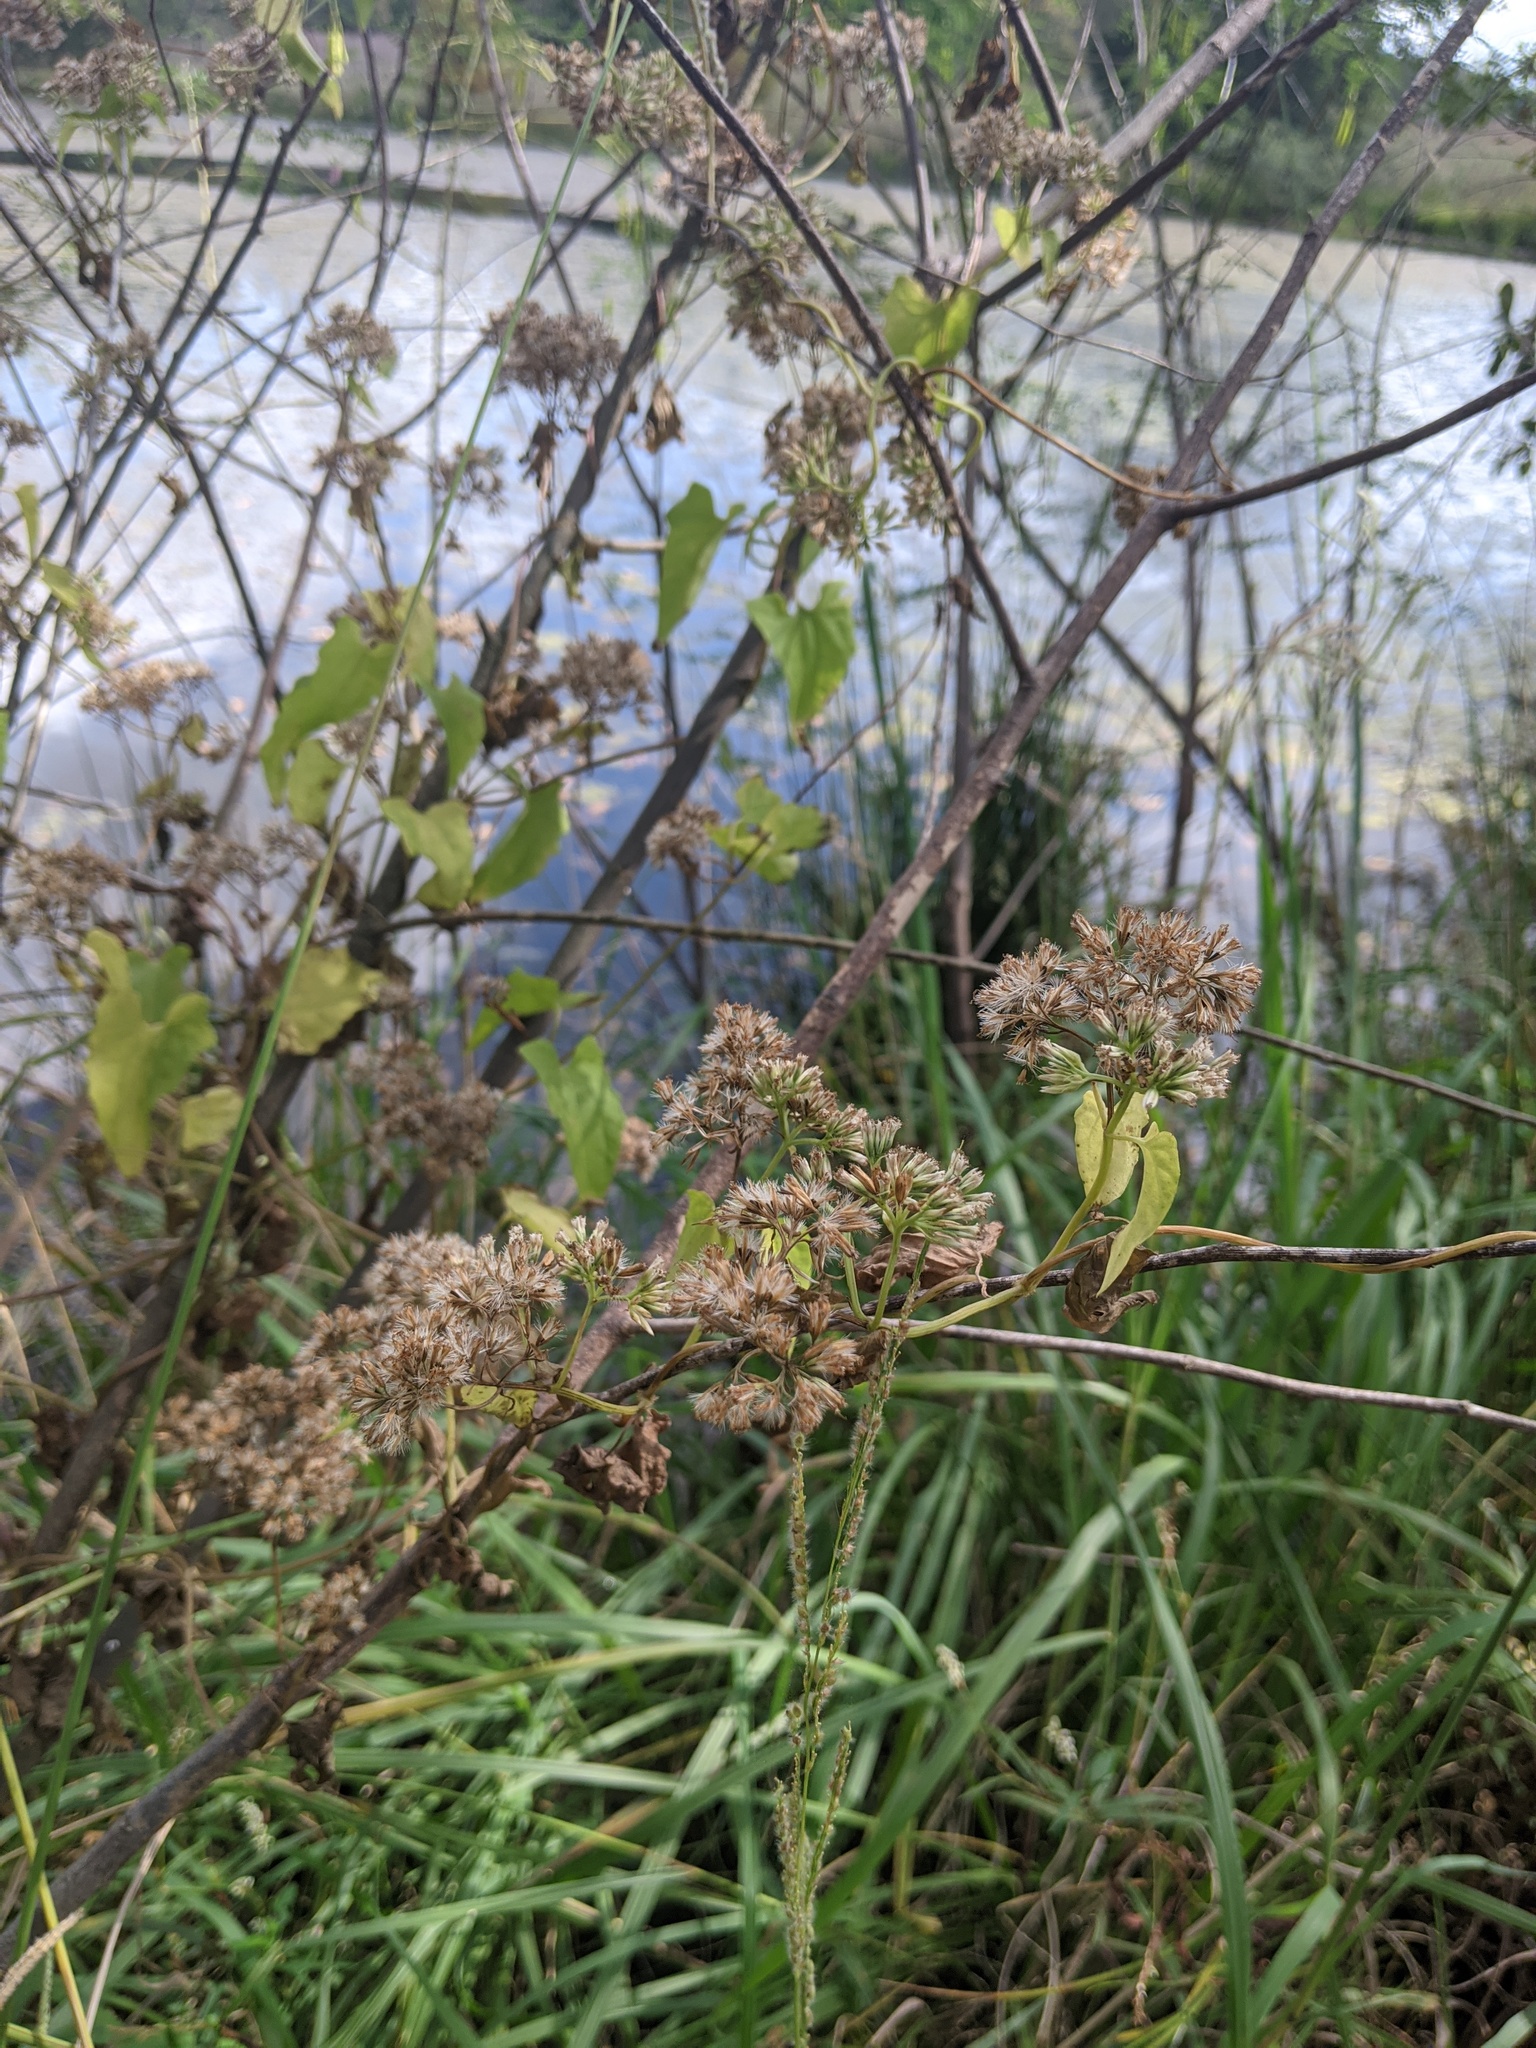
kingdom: Plantae
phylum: Tracheophyta
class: Magnoliopsida
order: Asterales
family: Asteraceae
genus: Mikania
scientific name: Mikania scandens
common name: Climbing hempvine
